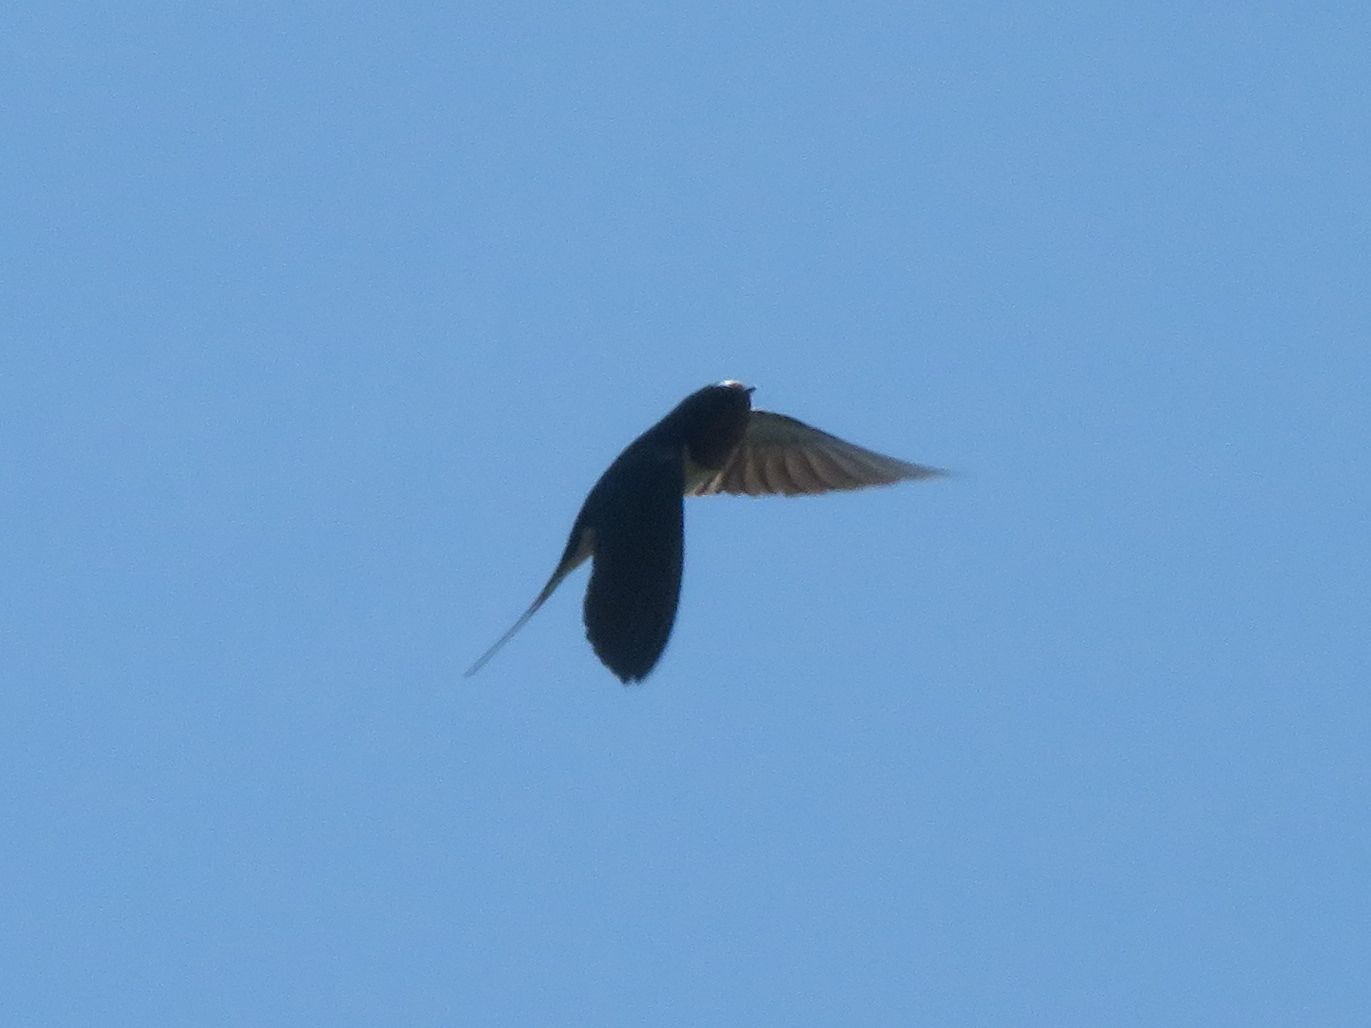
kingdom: Animalia
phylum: Chordata
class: Aves
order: Passeriformes
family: Hirundinidae
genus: Hirundo
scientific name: Hirundo rustica
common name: Barn swallow
